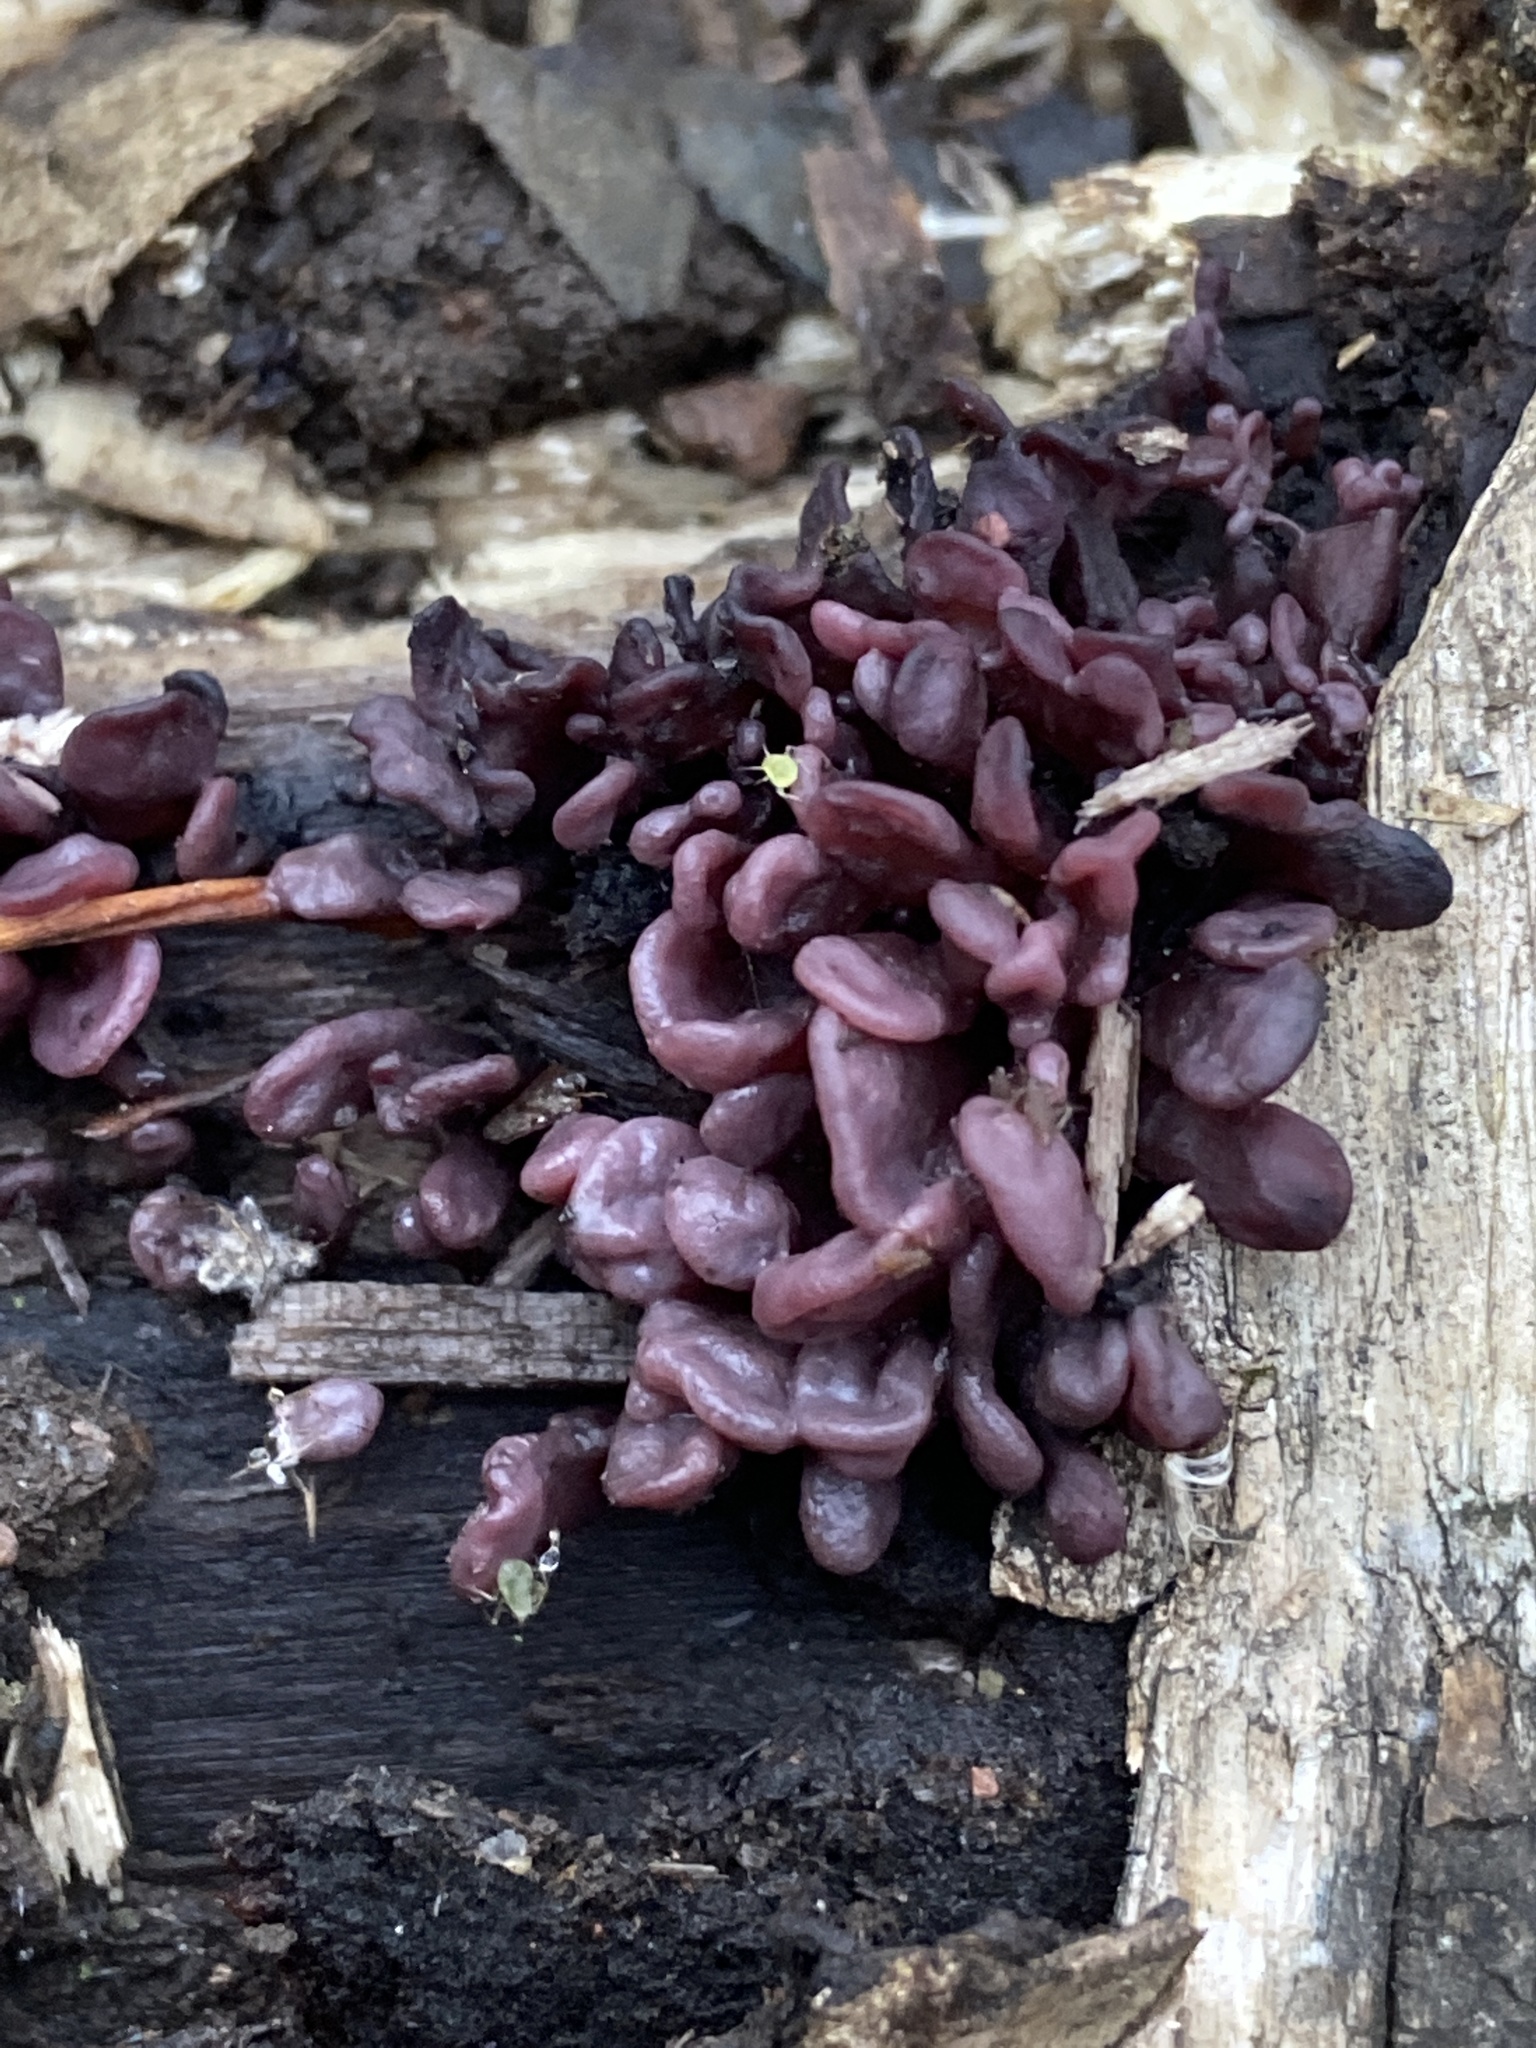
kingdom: Fungi
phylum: Ascomycota
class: Leotiomycetes
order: Helotiales
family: Gelatinodiscaceae
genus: Ascocoryne
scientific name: Ascocoryne sarcoides
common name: Purple jellydisc
